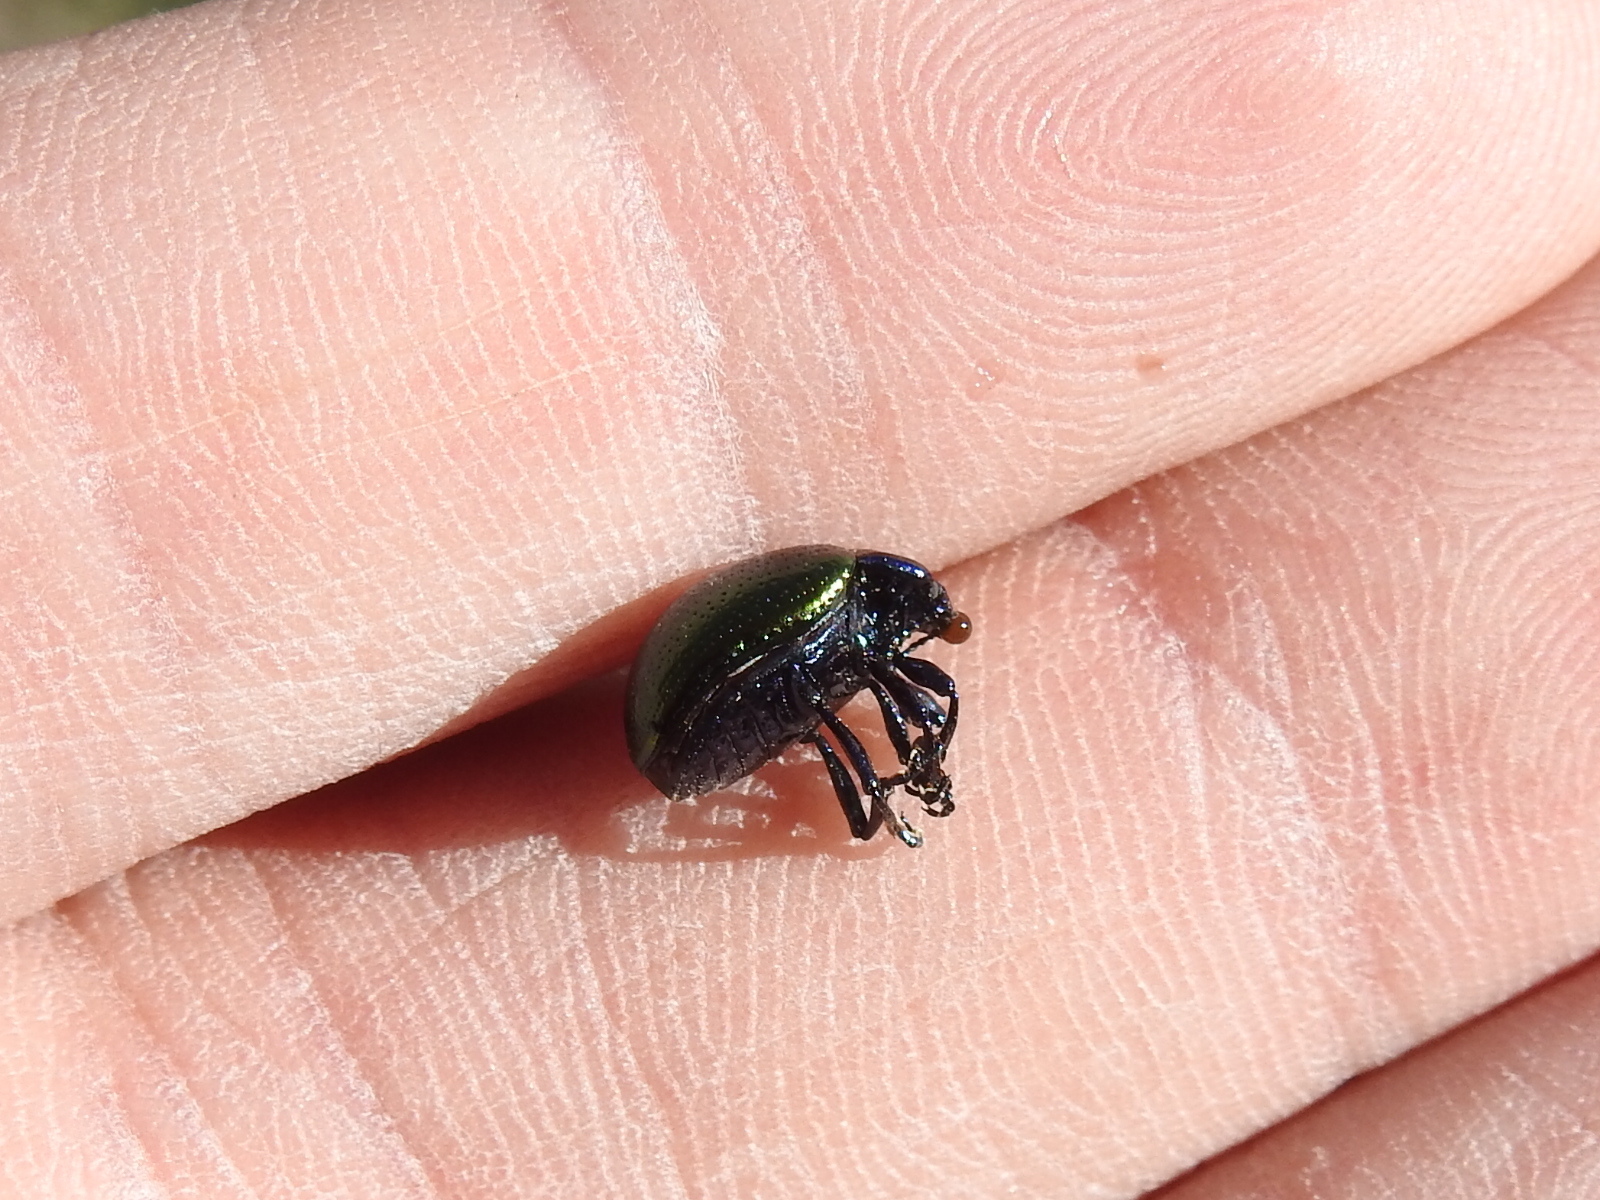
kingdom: Animalia
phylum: Arthropoda
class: Insecta
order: Coleoptera
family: Chrysomelidae
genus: Chrysolina
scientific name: Chrysolina auripennis
